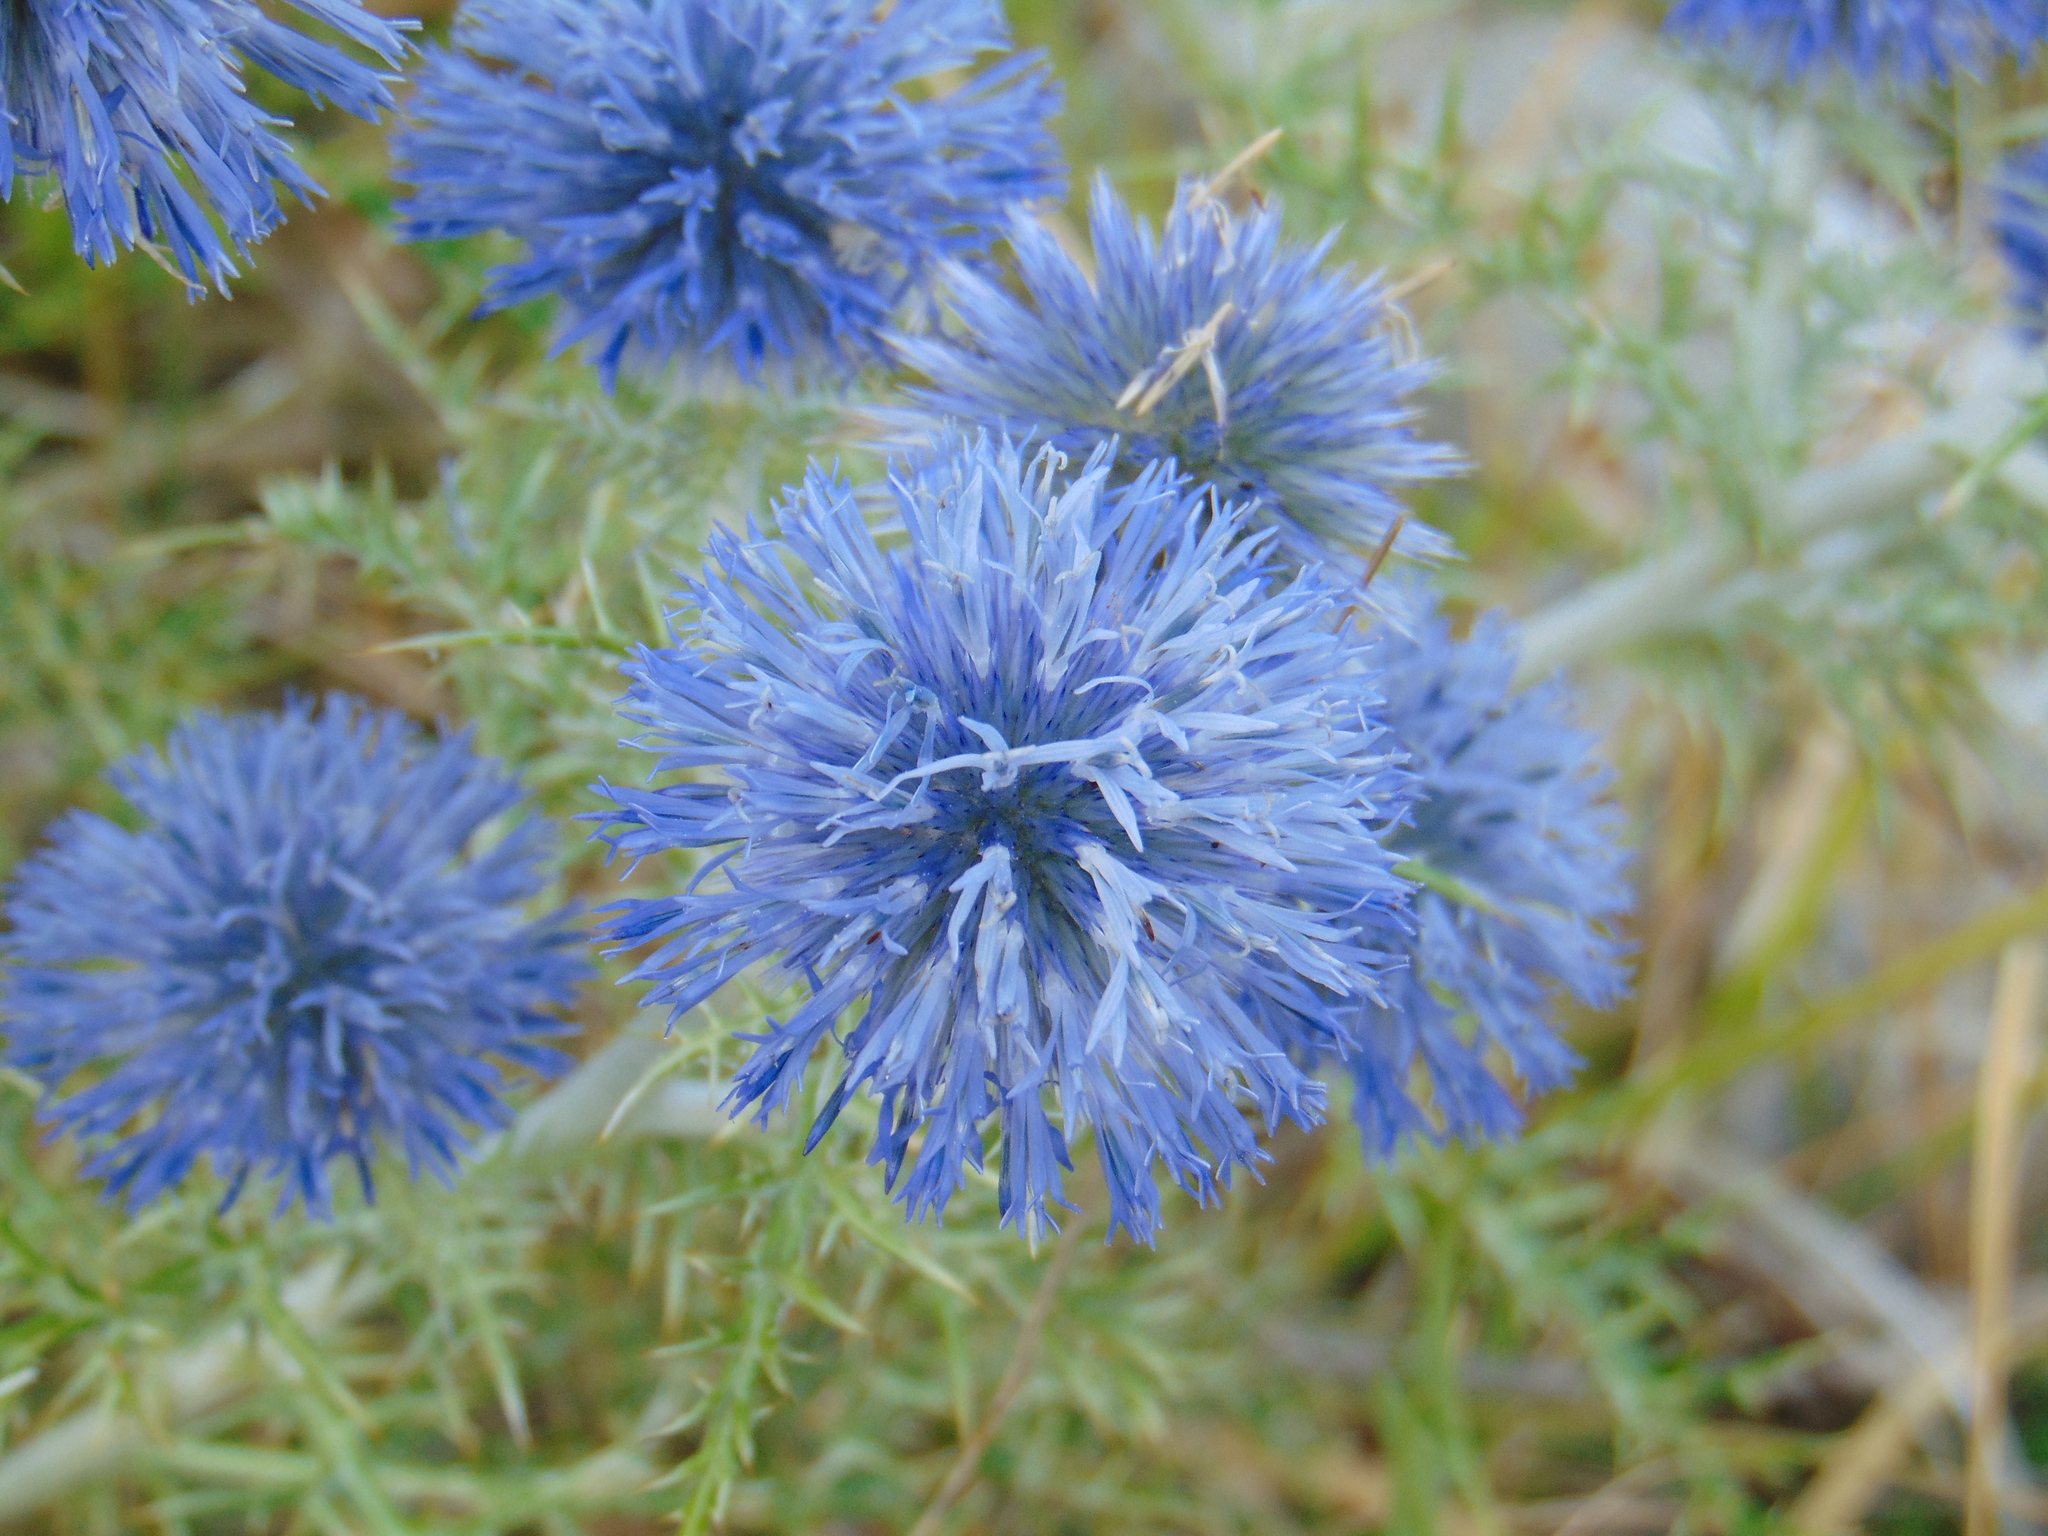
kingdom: Plantae
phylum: Tracheophyta
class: Magnoliopsida
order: Asterales
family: Asteraceae
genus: Echinops
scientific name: Echinops ritro
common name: Globe thistle
